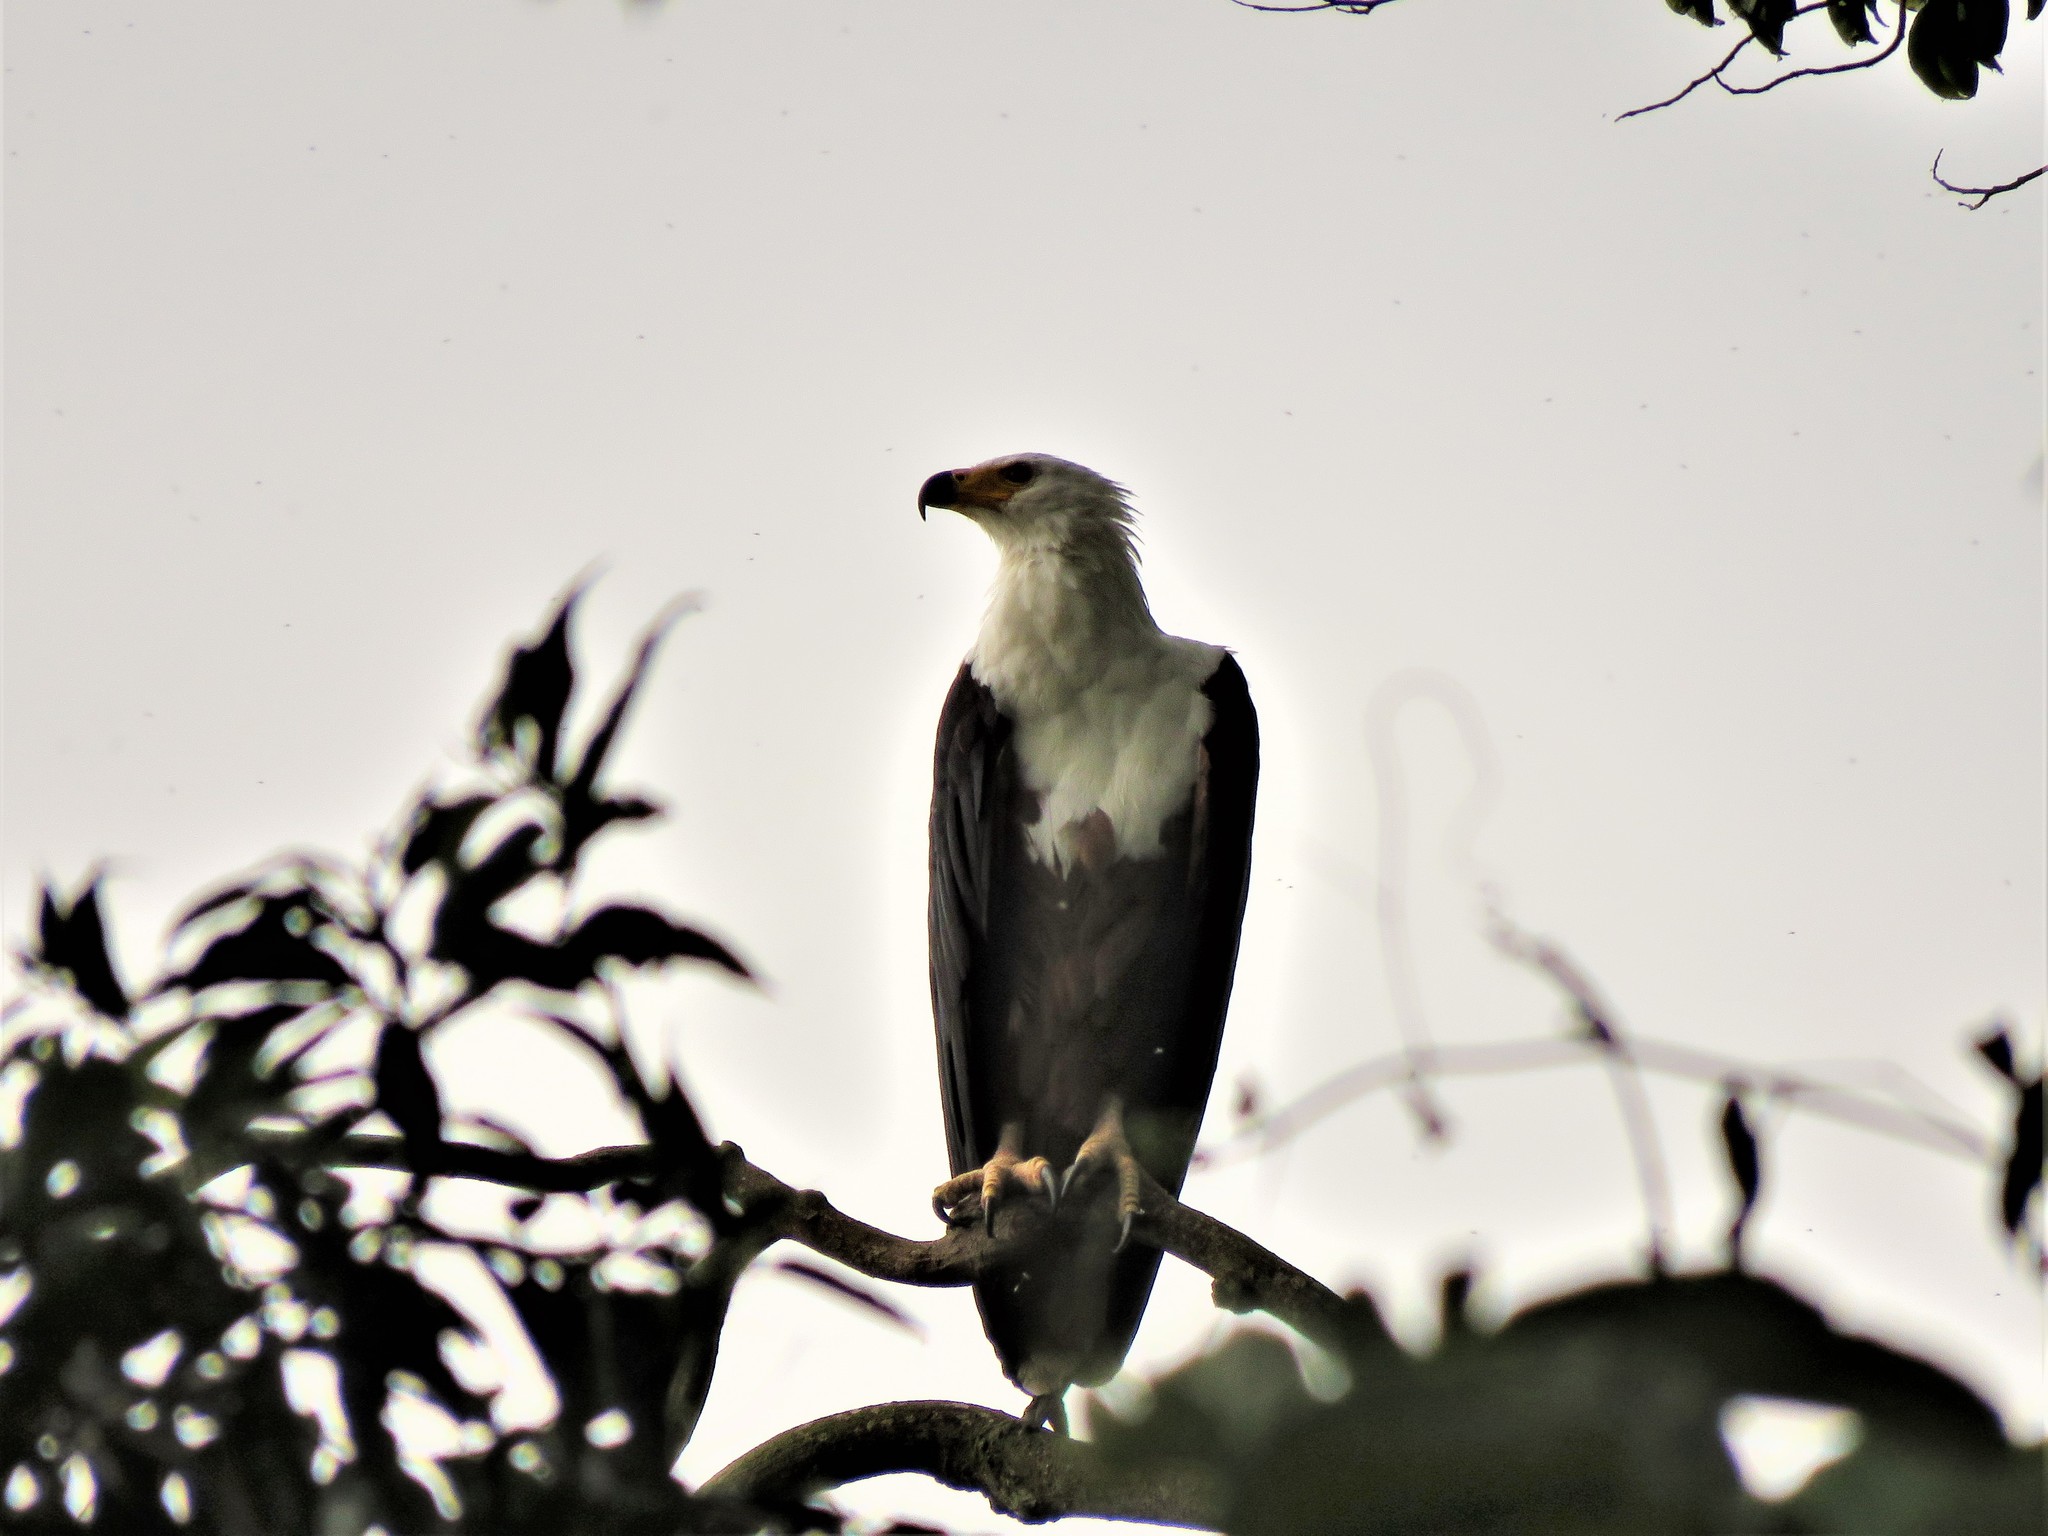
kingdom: Animalia
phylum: Chordata
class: Aves
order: Accipitriformes
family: Accipitridae
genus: Haliaeetus
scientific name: Haliaeetus vocifer
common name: African fish eagle
